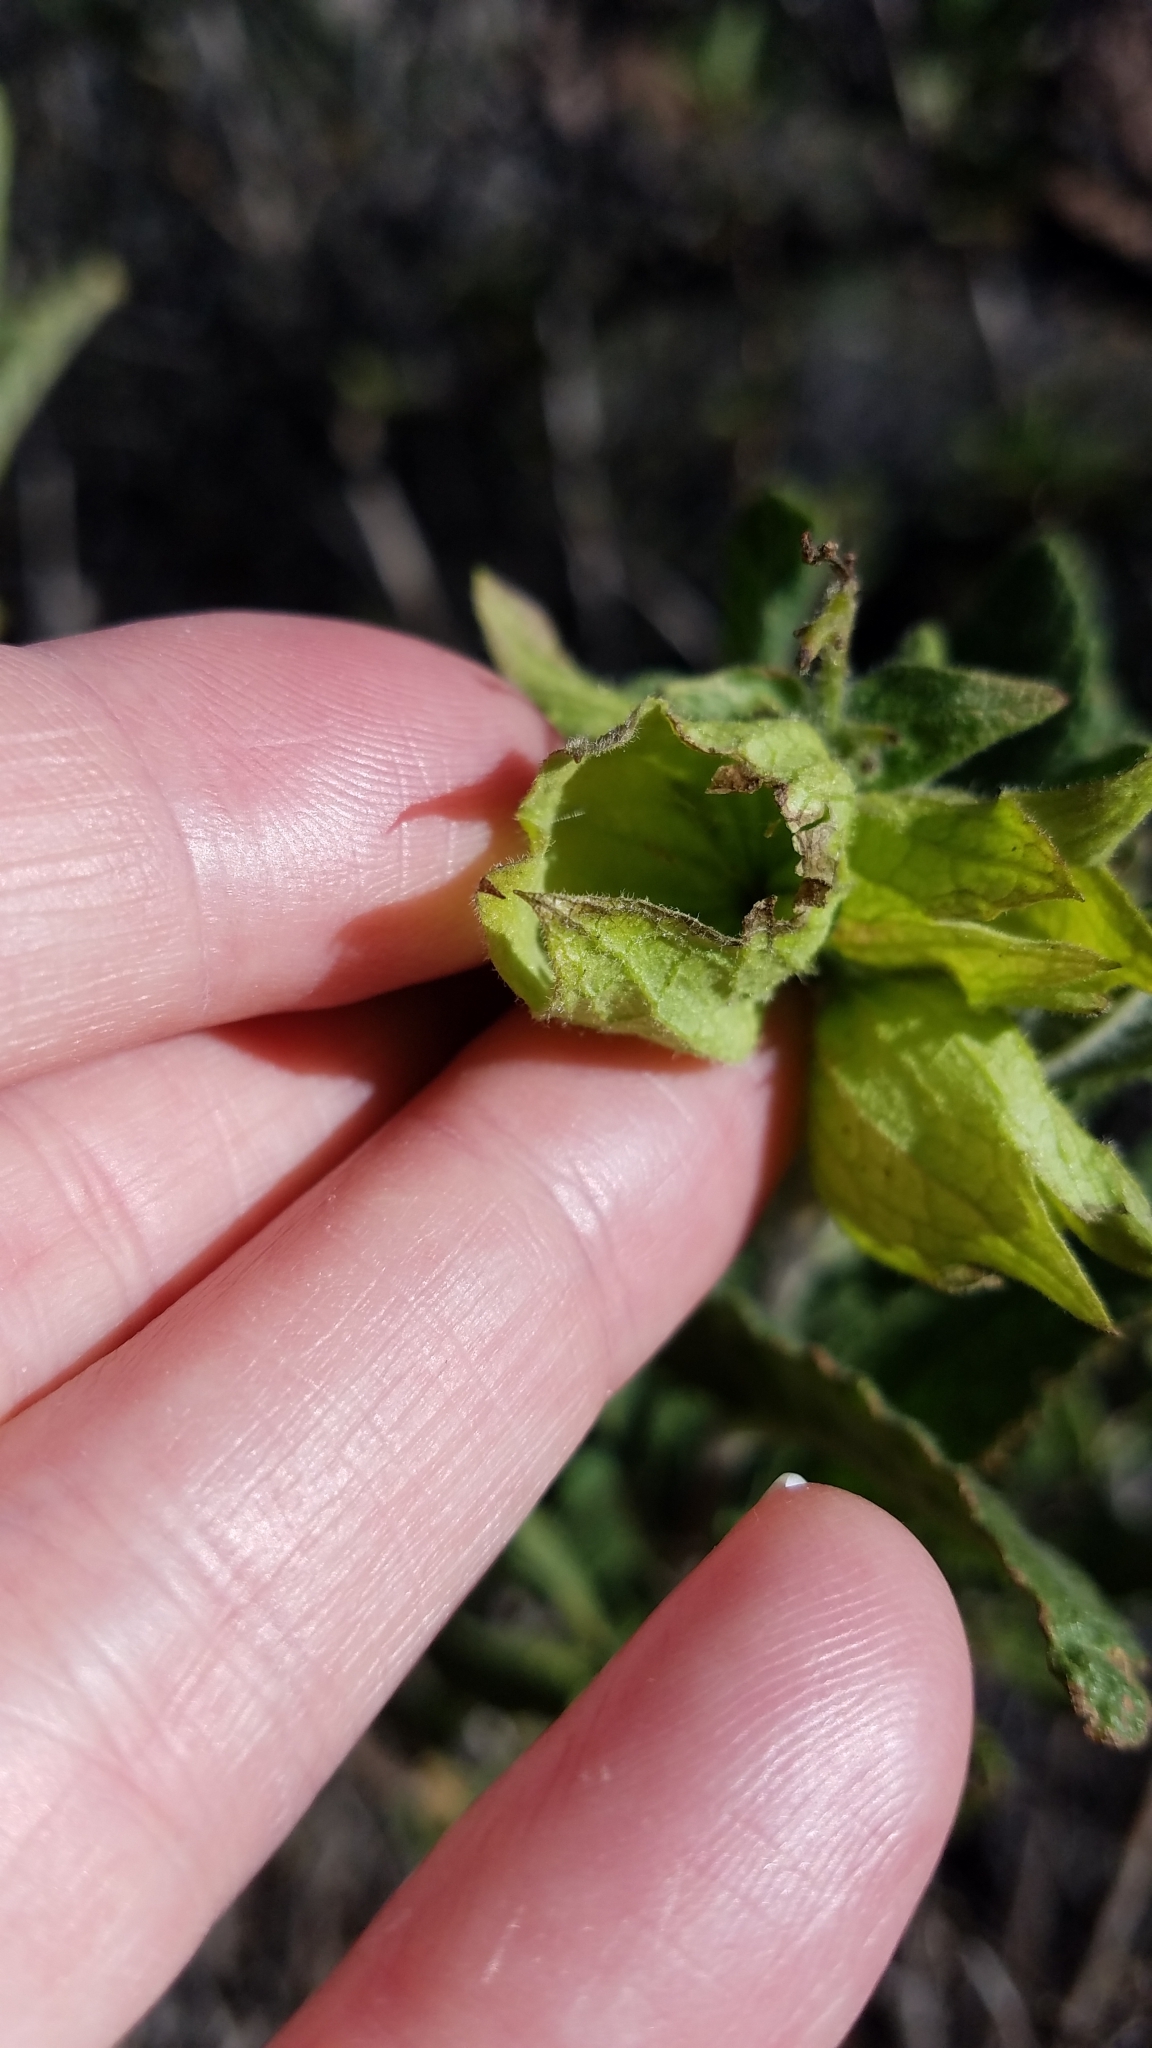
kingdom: Plantae
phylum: Tracheophyta
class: Magnoliopsida
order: Lamiales
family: Lamiaceae
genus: Lepechinia
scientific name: Lepechinia calycina
